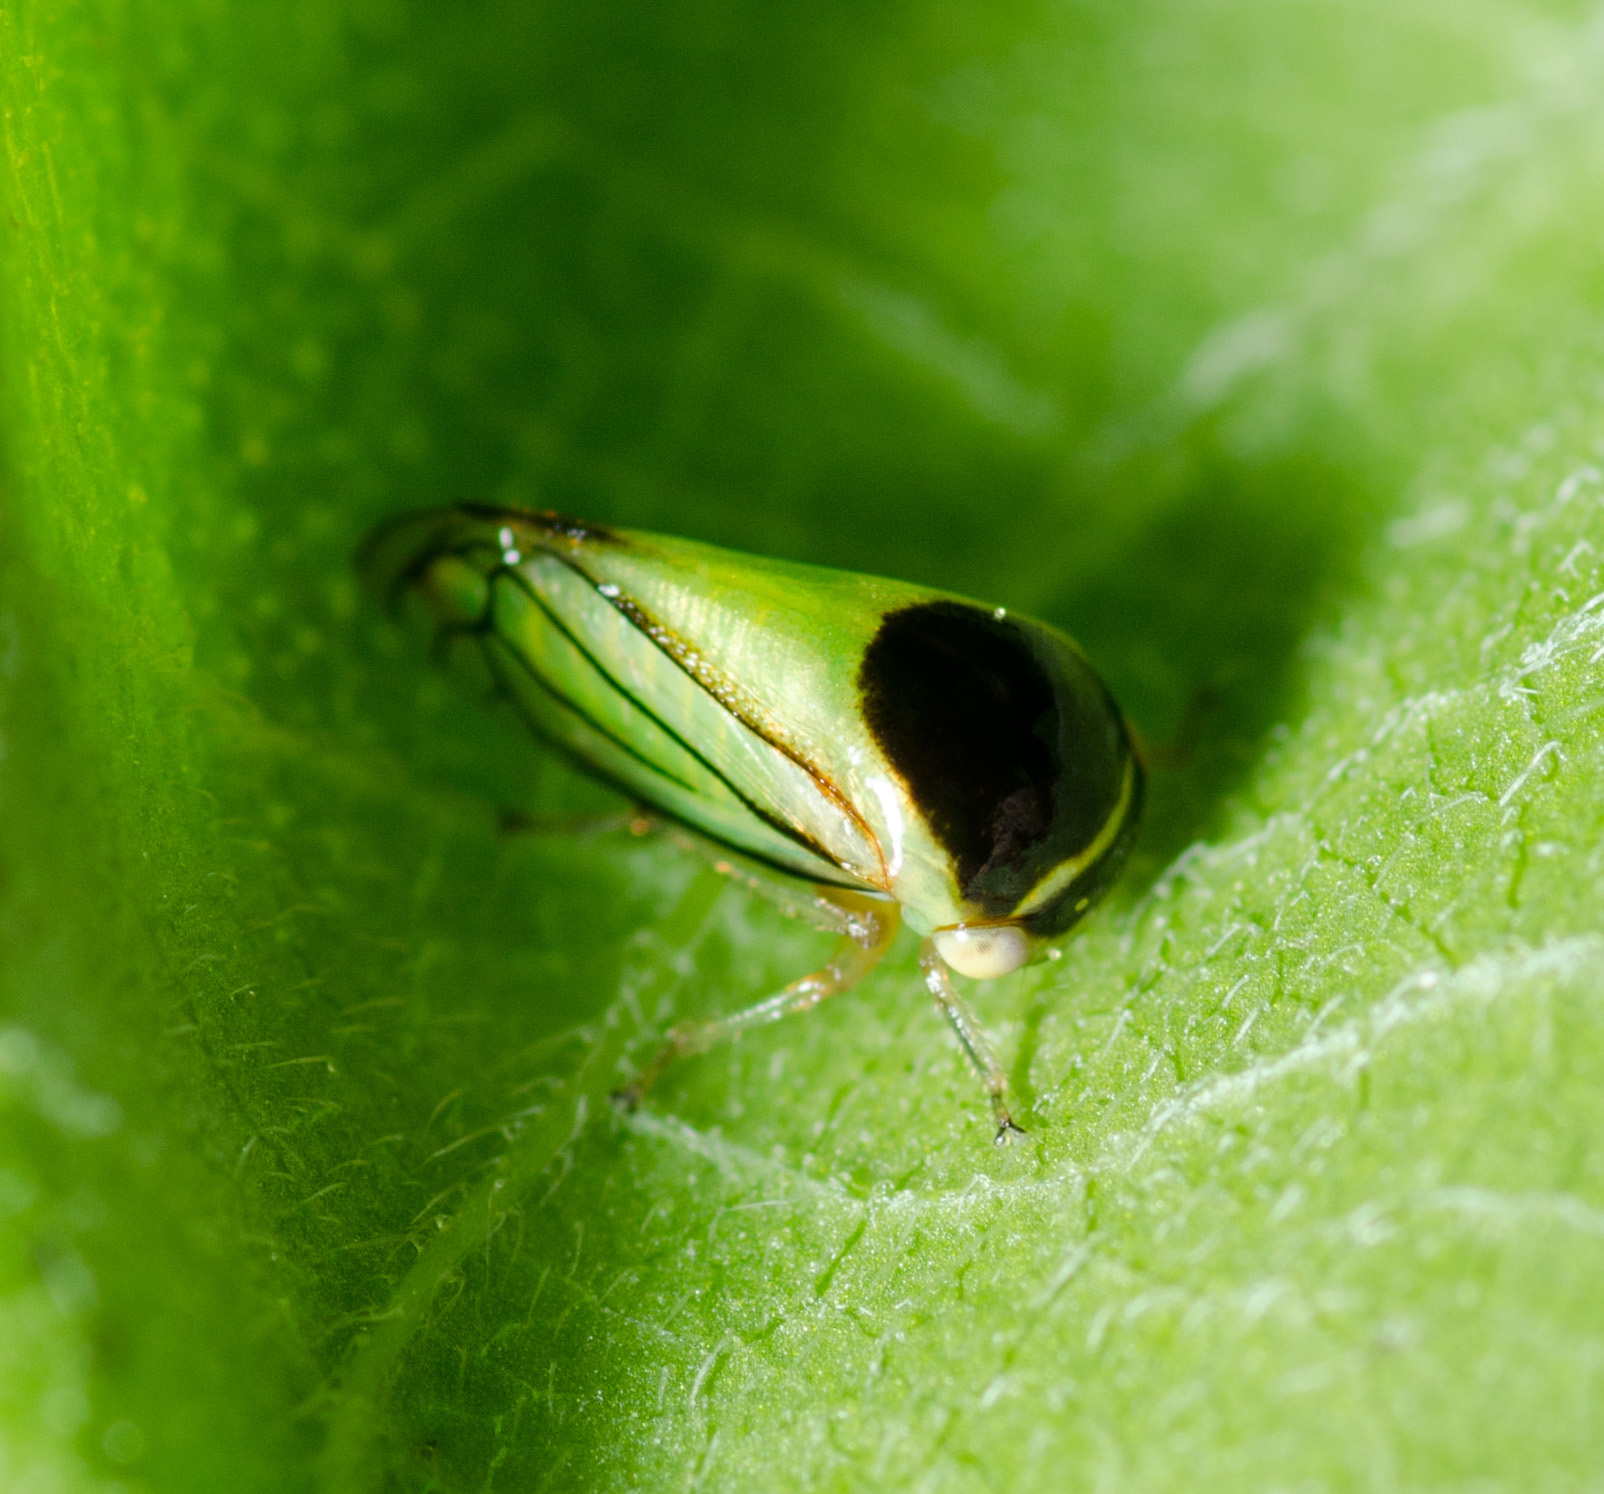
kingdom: Animalia
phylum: Arthropoda
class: Insecta
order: Hemiptera
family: Membracidae
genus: Acutalis
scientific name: Acutalis tartarea
